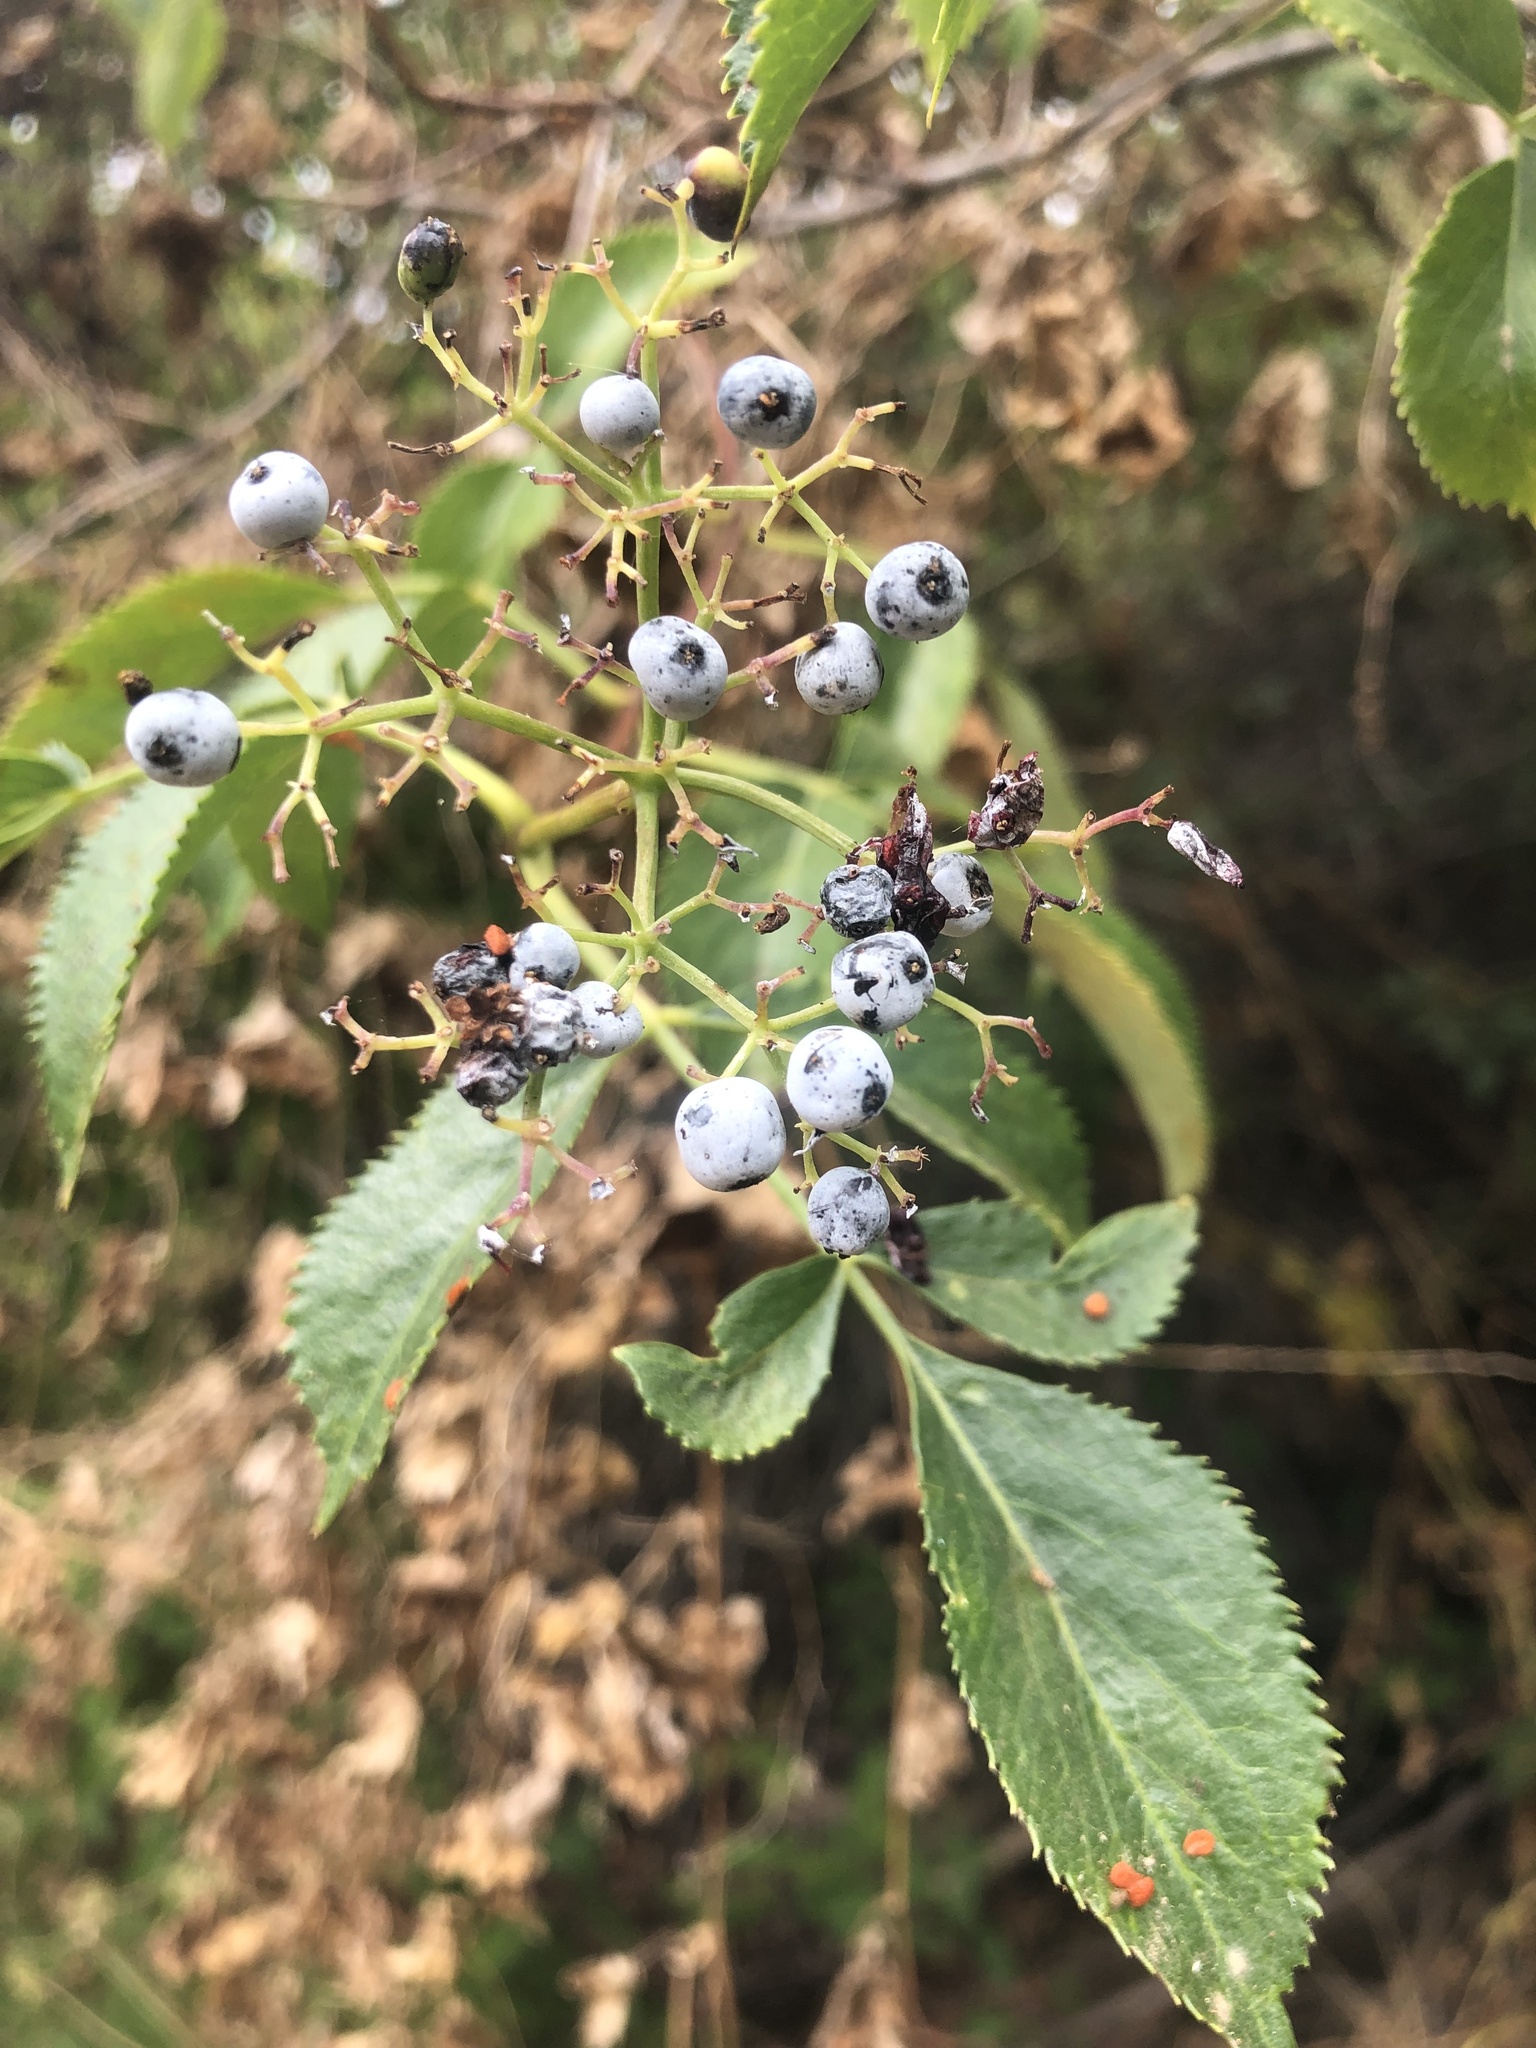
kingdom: Plantae
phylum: Tracheophyta
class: Magnoliopsida
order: Dipsacales
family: Viburnaceae
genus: Sambucus
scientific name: Sambucus cerulea
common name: Blue elder
